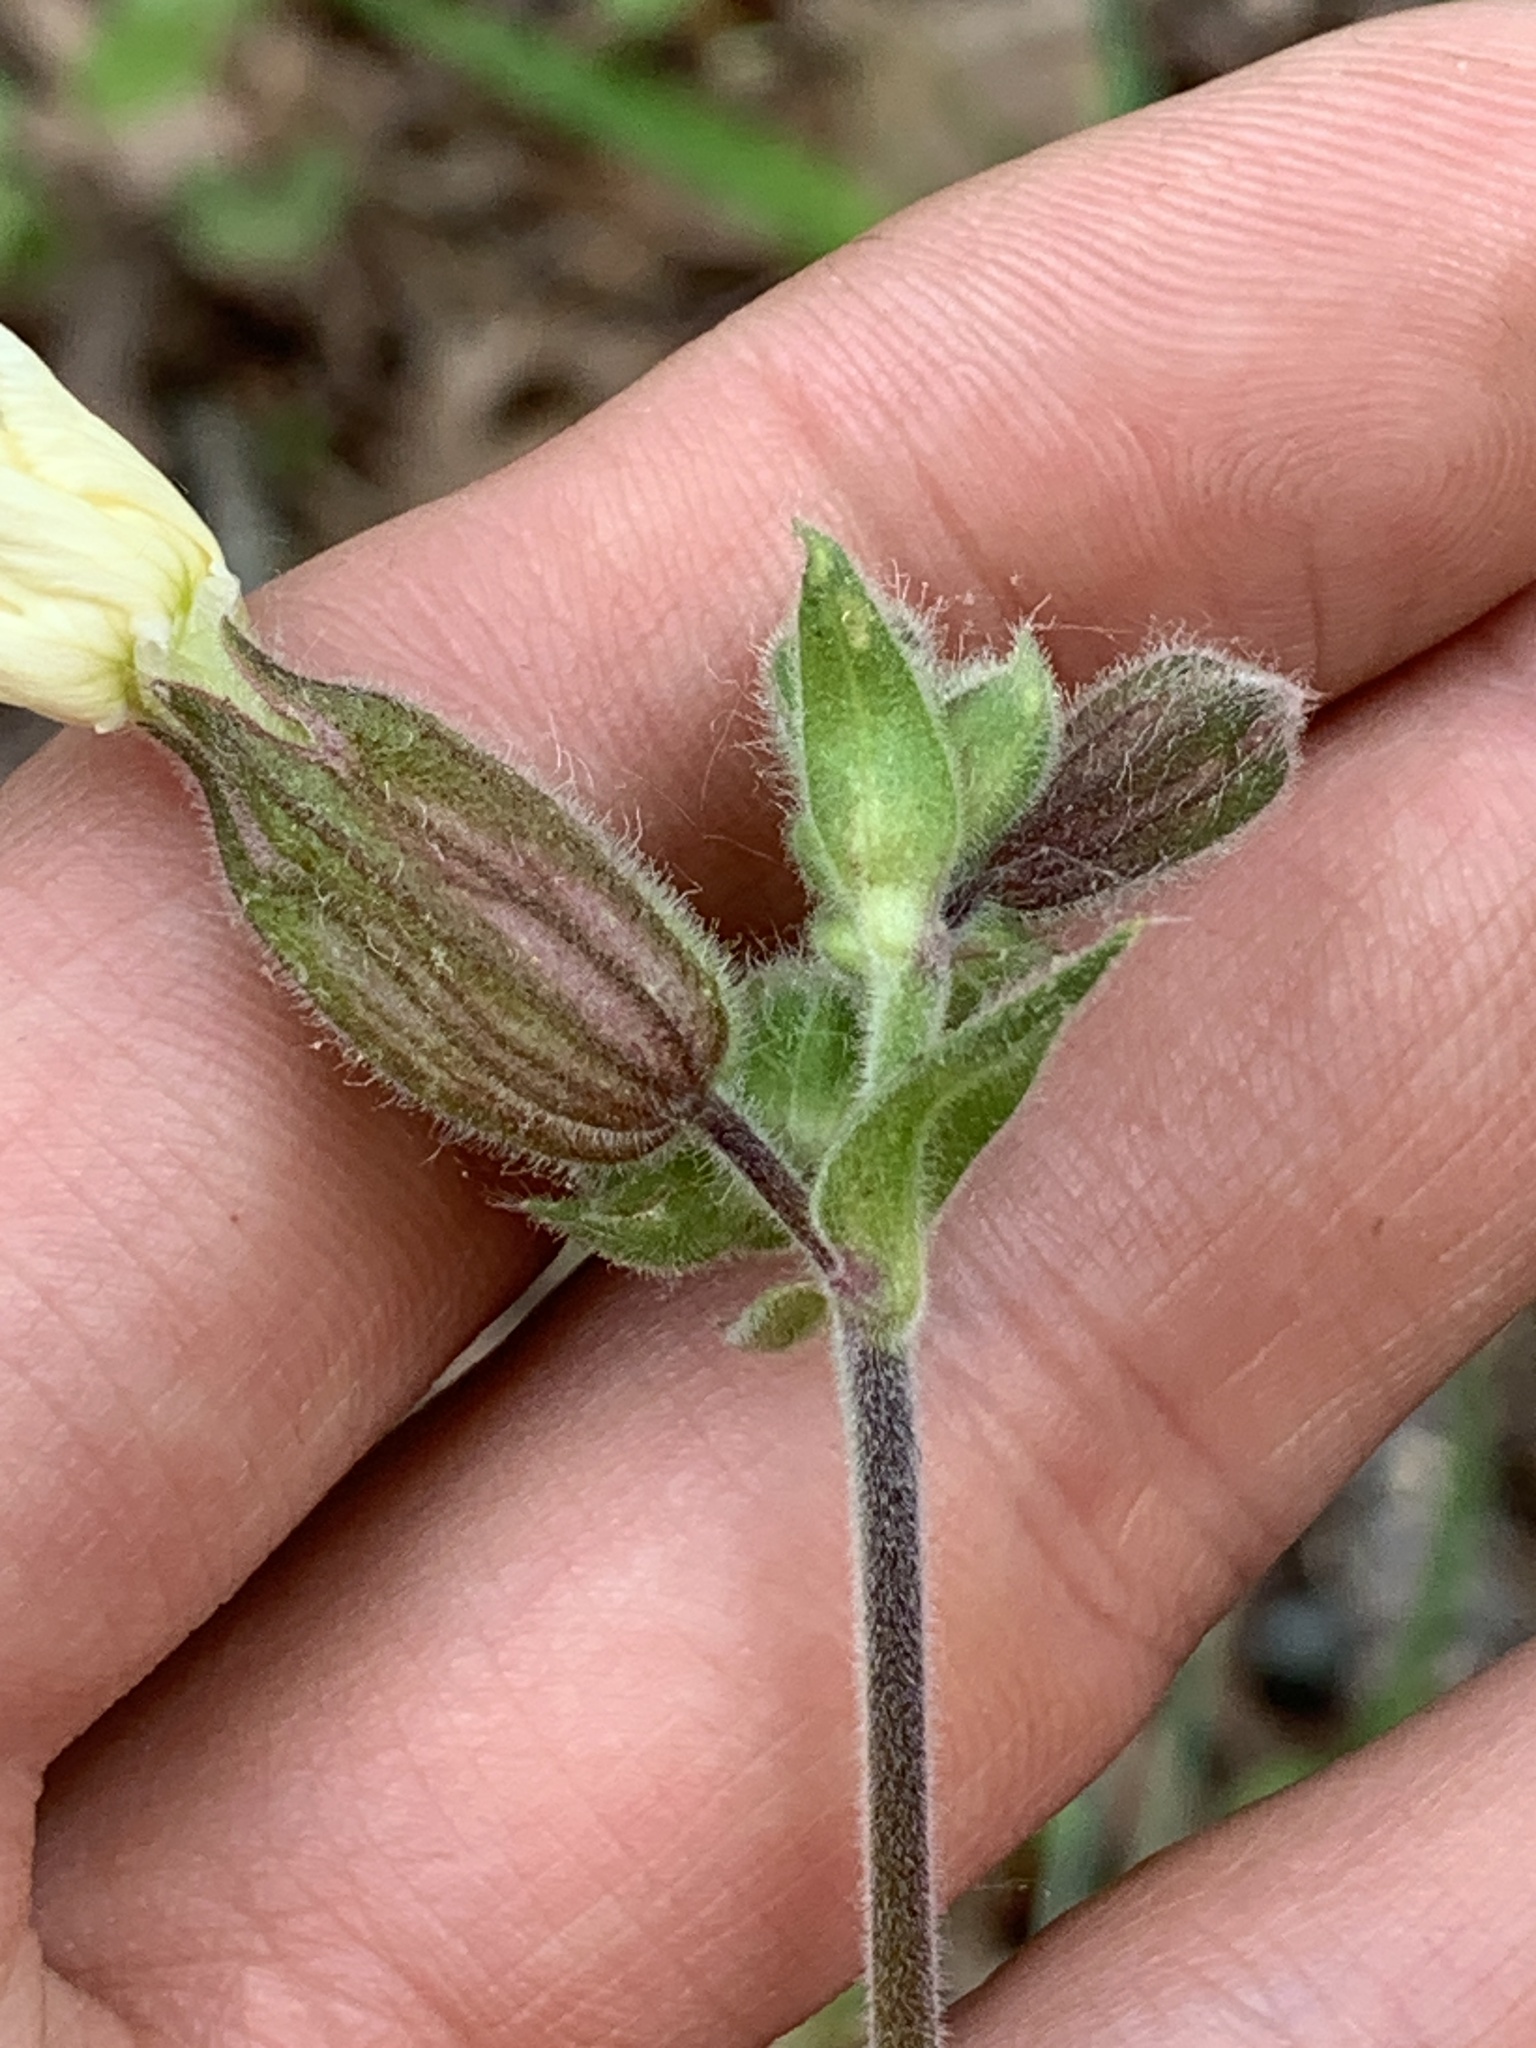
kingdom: Plantae
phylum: Tracheophyta
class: Magnoliopsida
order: Caryophyllales
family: Caryophyllaceae
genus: Silene
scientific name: Silene latifolia
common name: White campion
